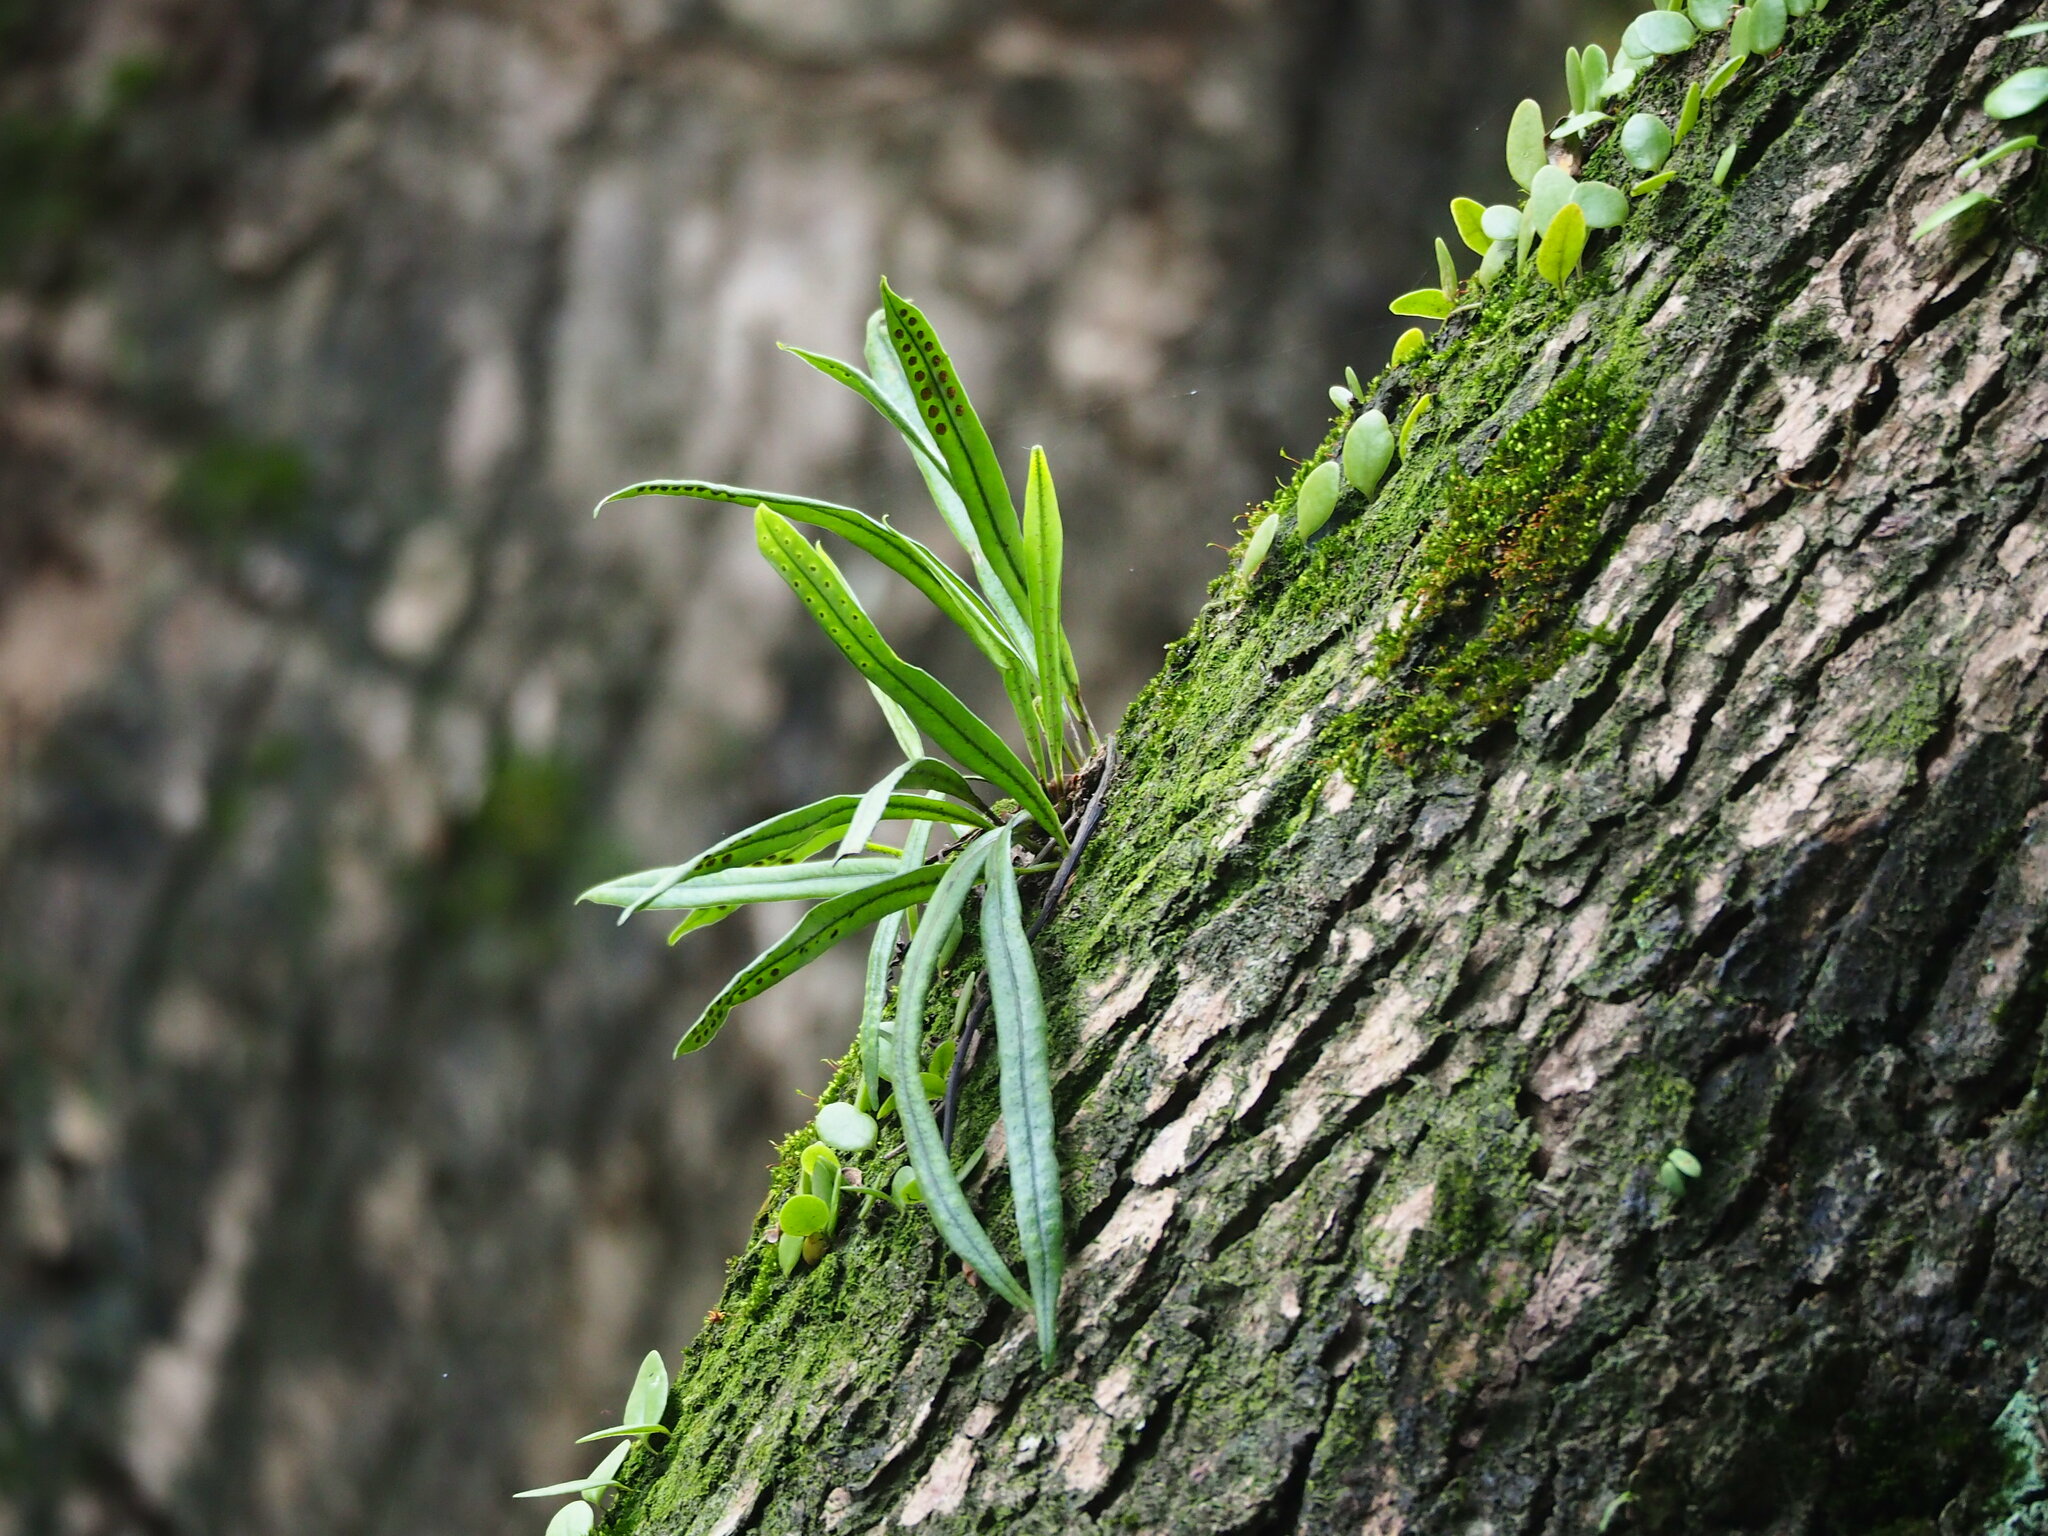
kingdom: Plantae
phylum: Tracheophyta
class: Polypodiopsida
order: Polypodiales
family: Polypodiaceae
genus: Lepisorus
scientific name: Lepisorus thunbergianus
